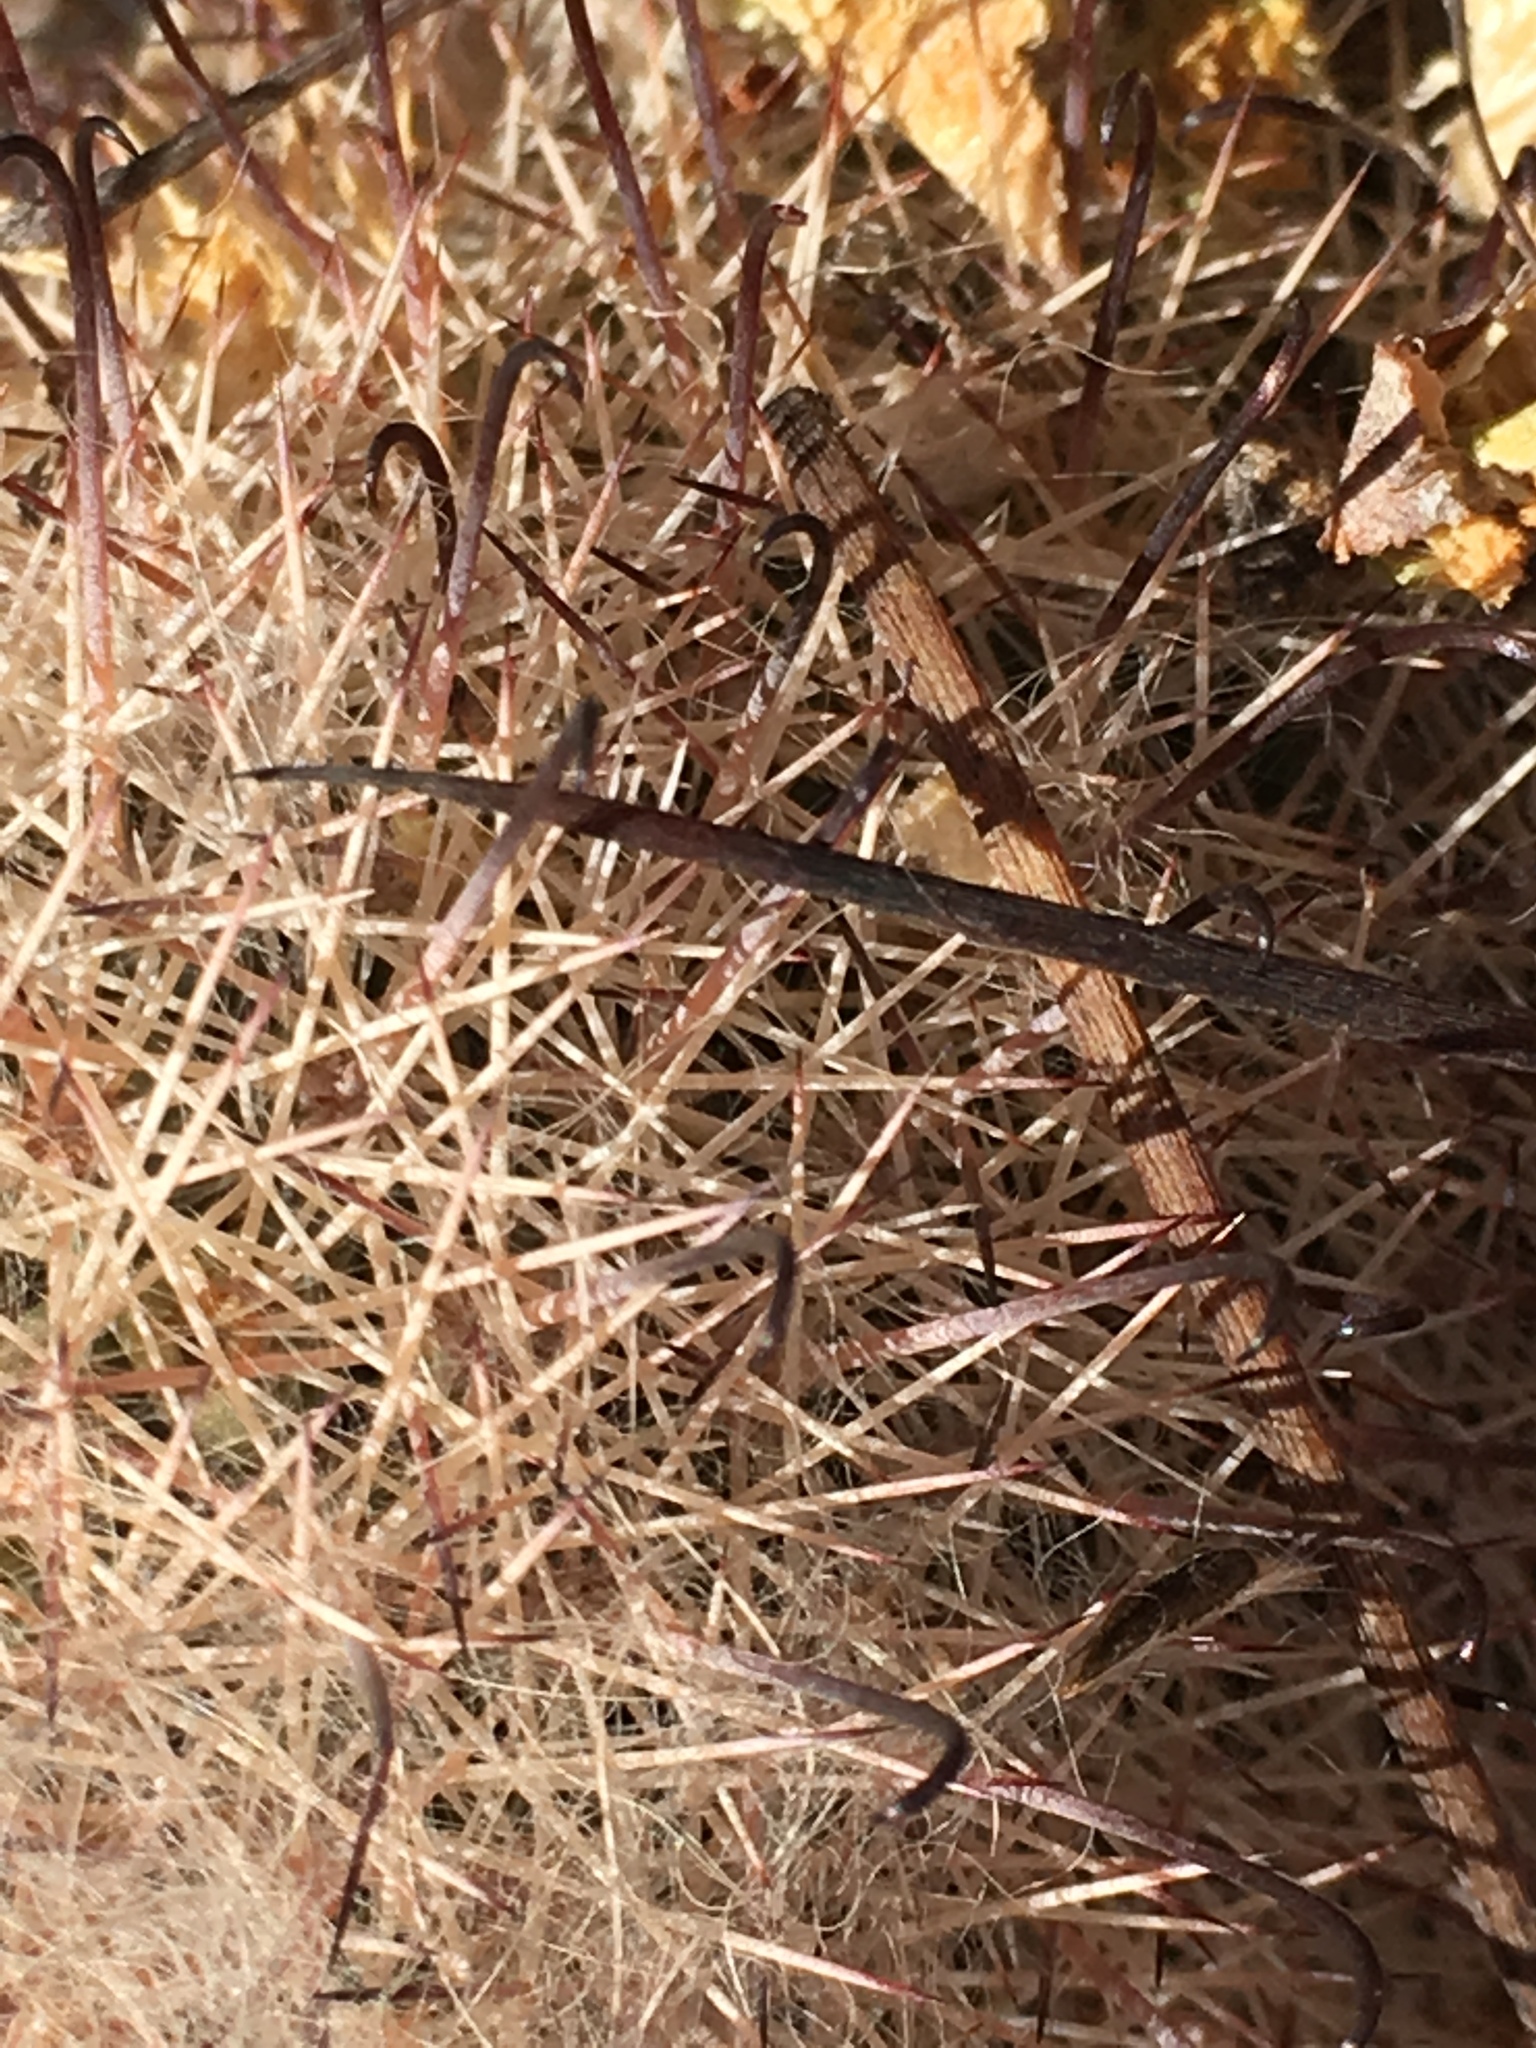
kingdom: Plantae
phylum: Tracheophyta
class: Magnoliopsida
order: Caryophyllales
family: Cactaceae
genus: Cochemiea
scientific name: Cochemiea dioica
